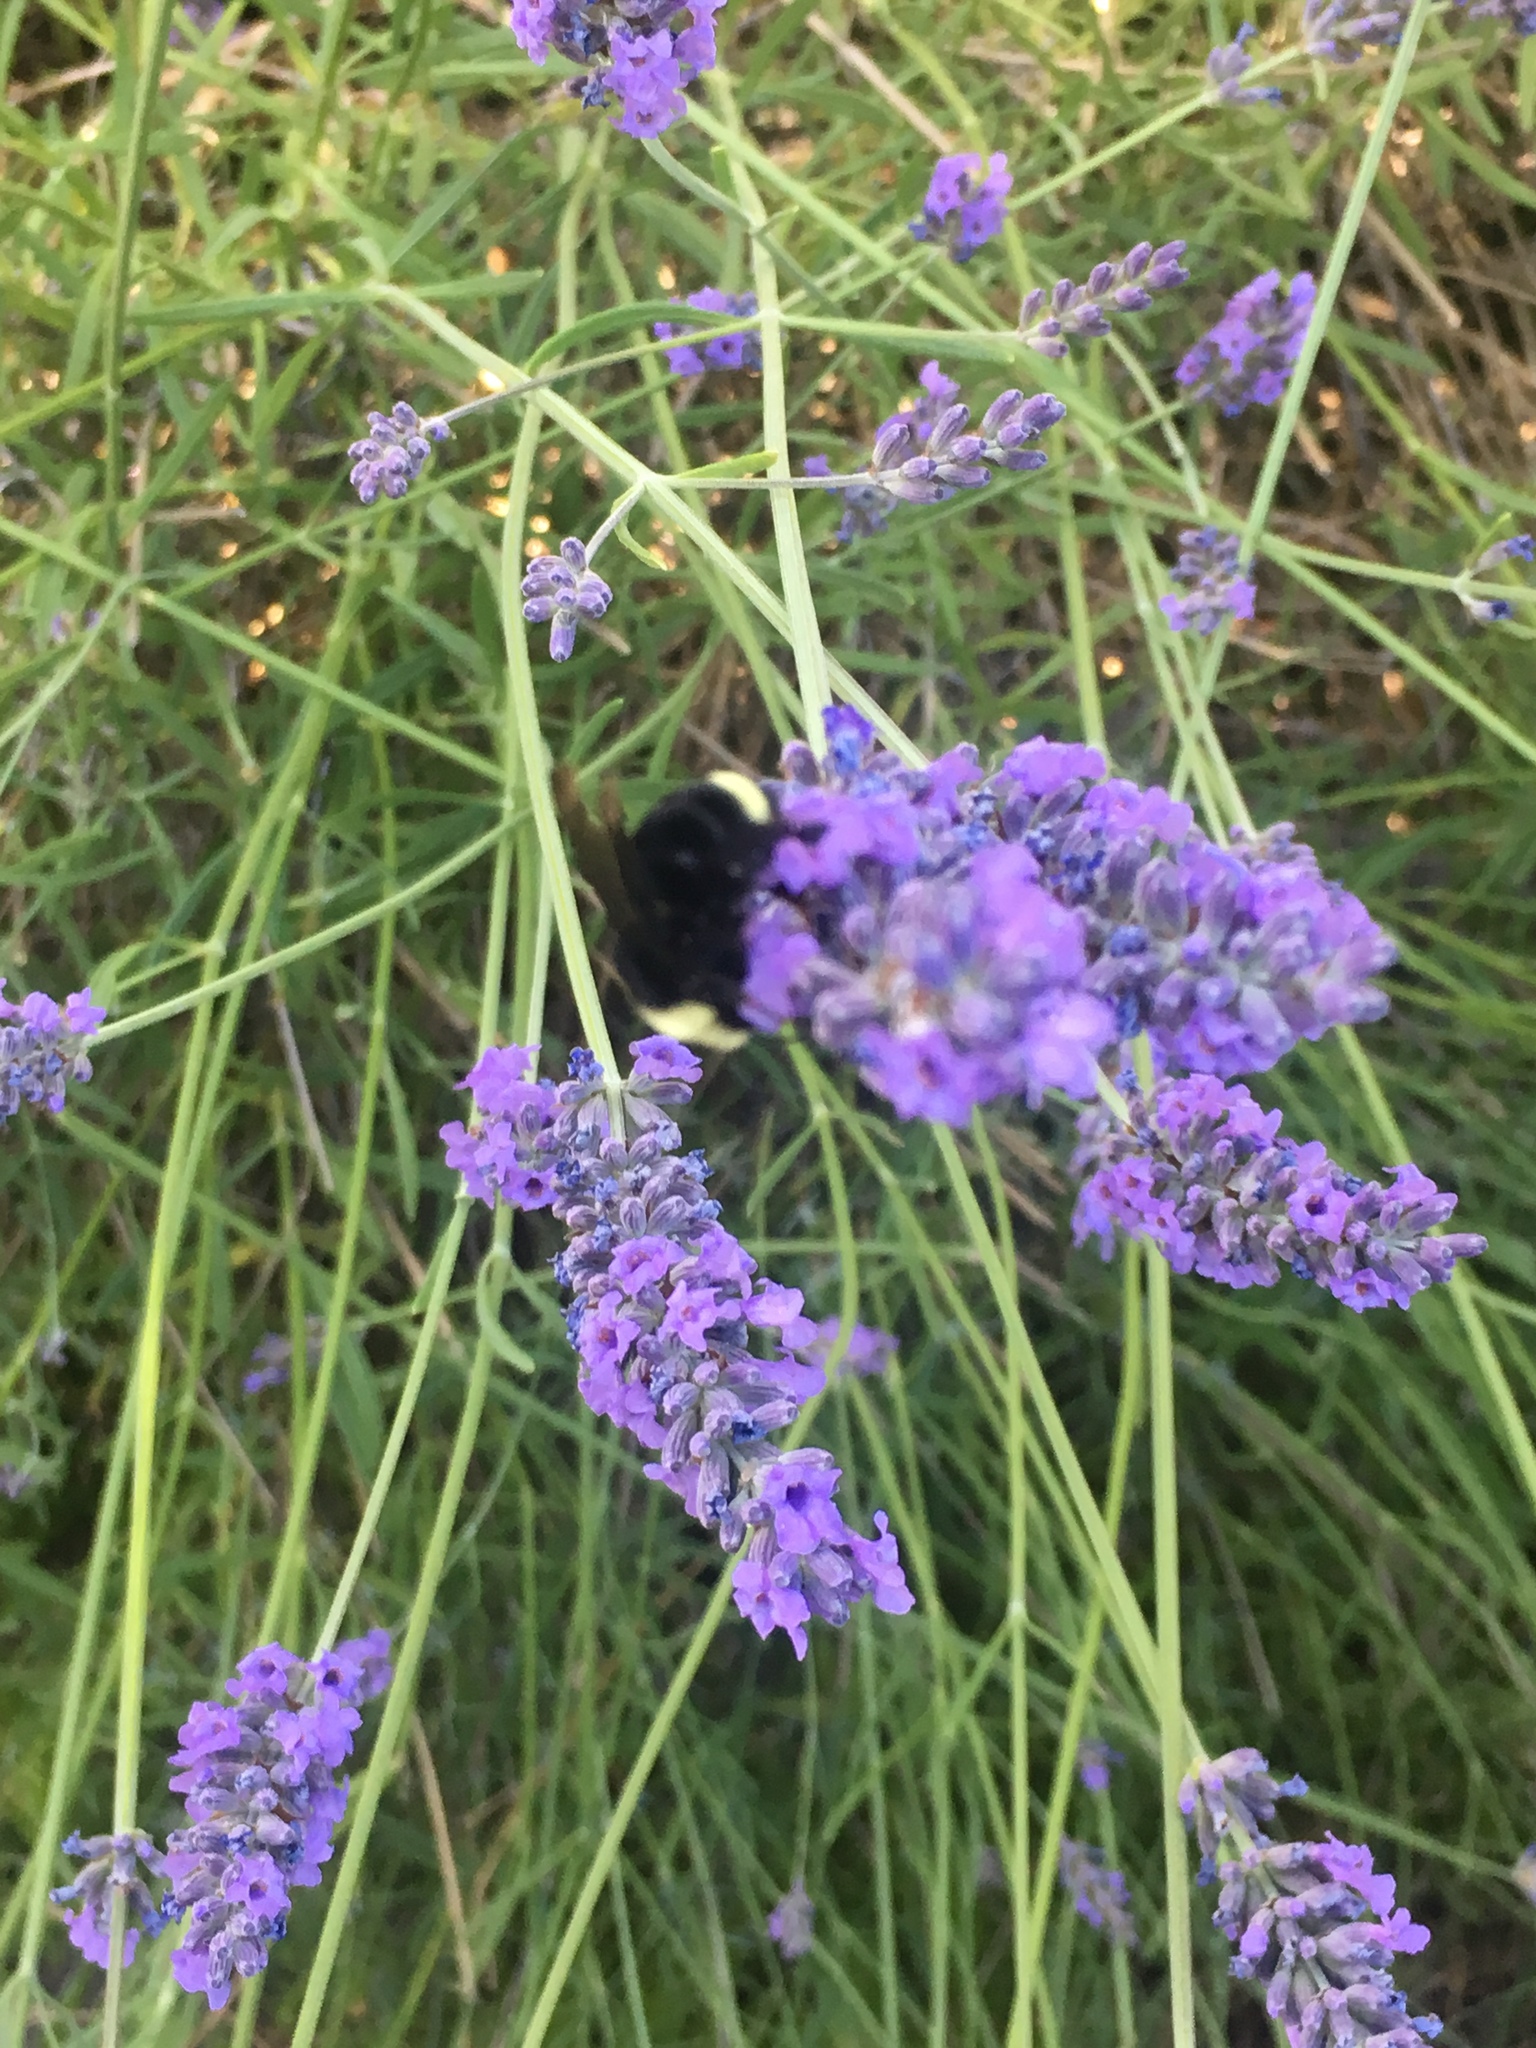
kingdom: Animalia
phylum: Arthropoda
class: Insecta
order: Hymenoptera
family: Apidae
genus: Bombus
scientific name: Bombus vosnesenskii
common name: Vosnesensky bumble bee
